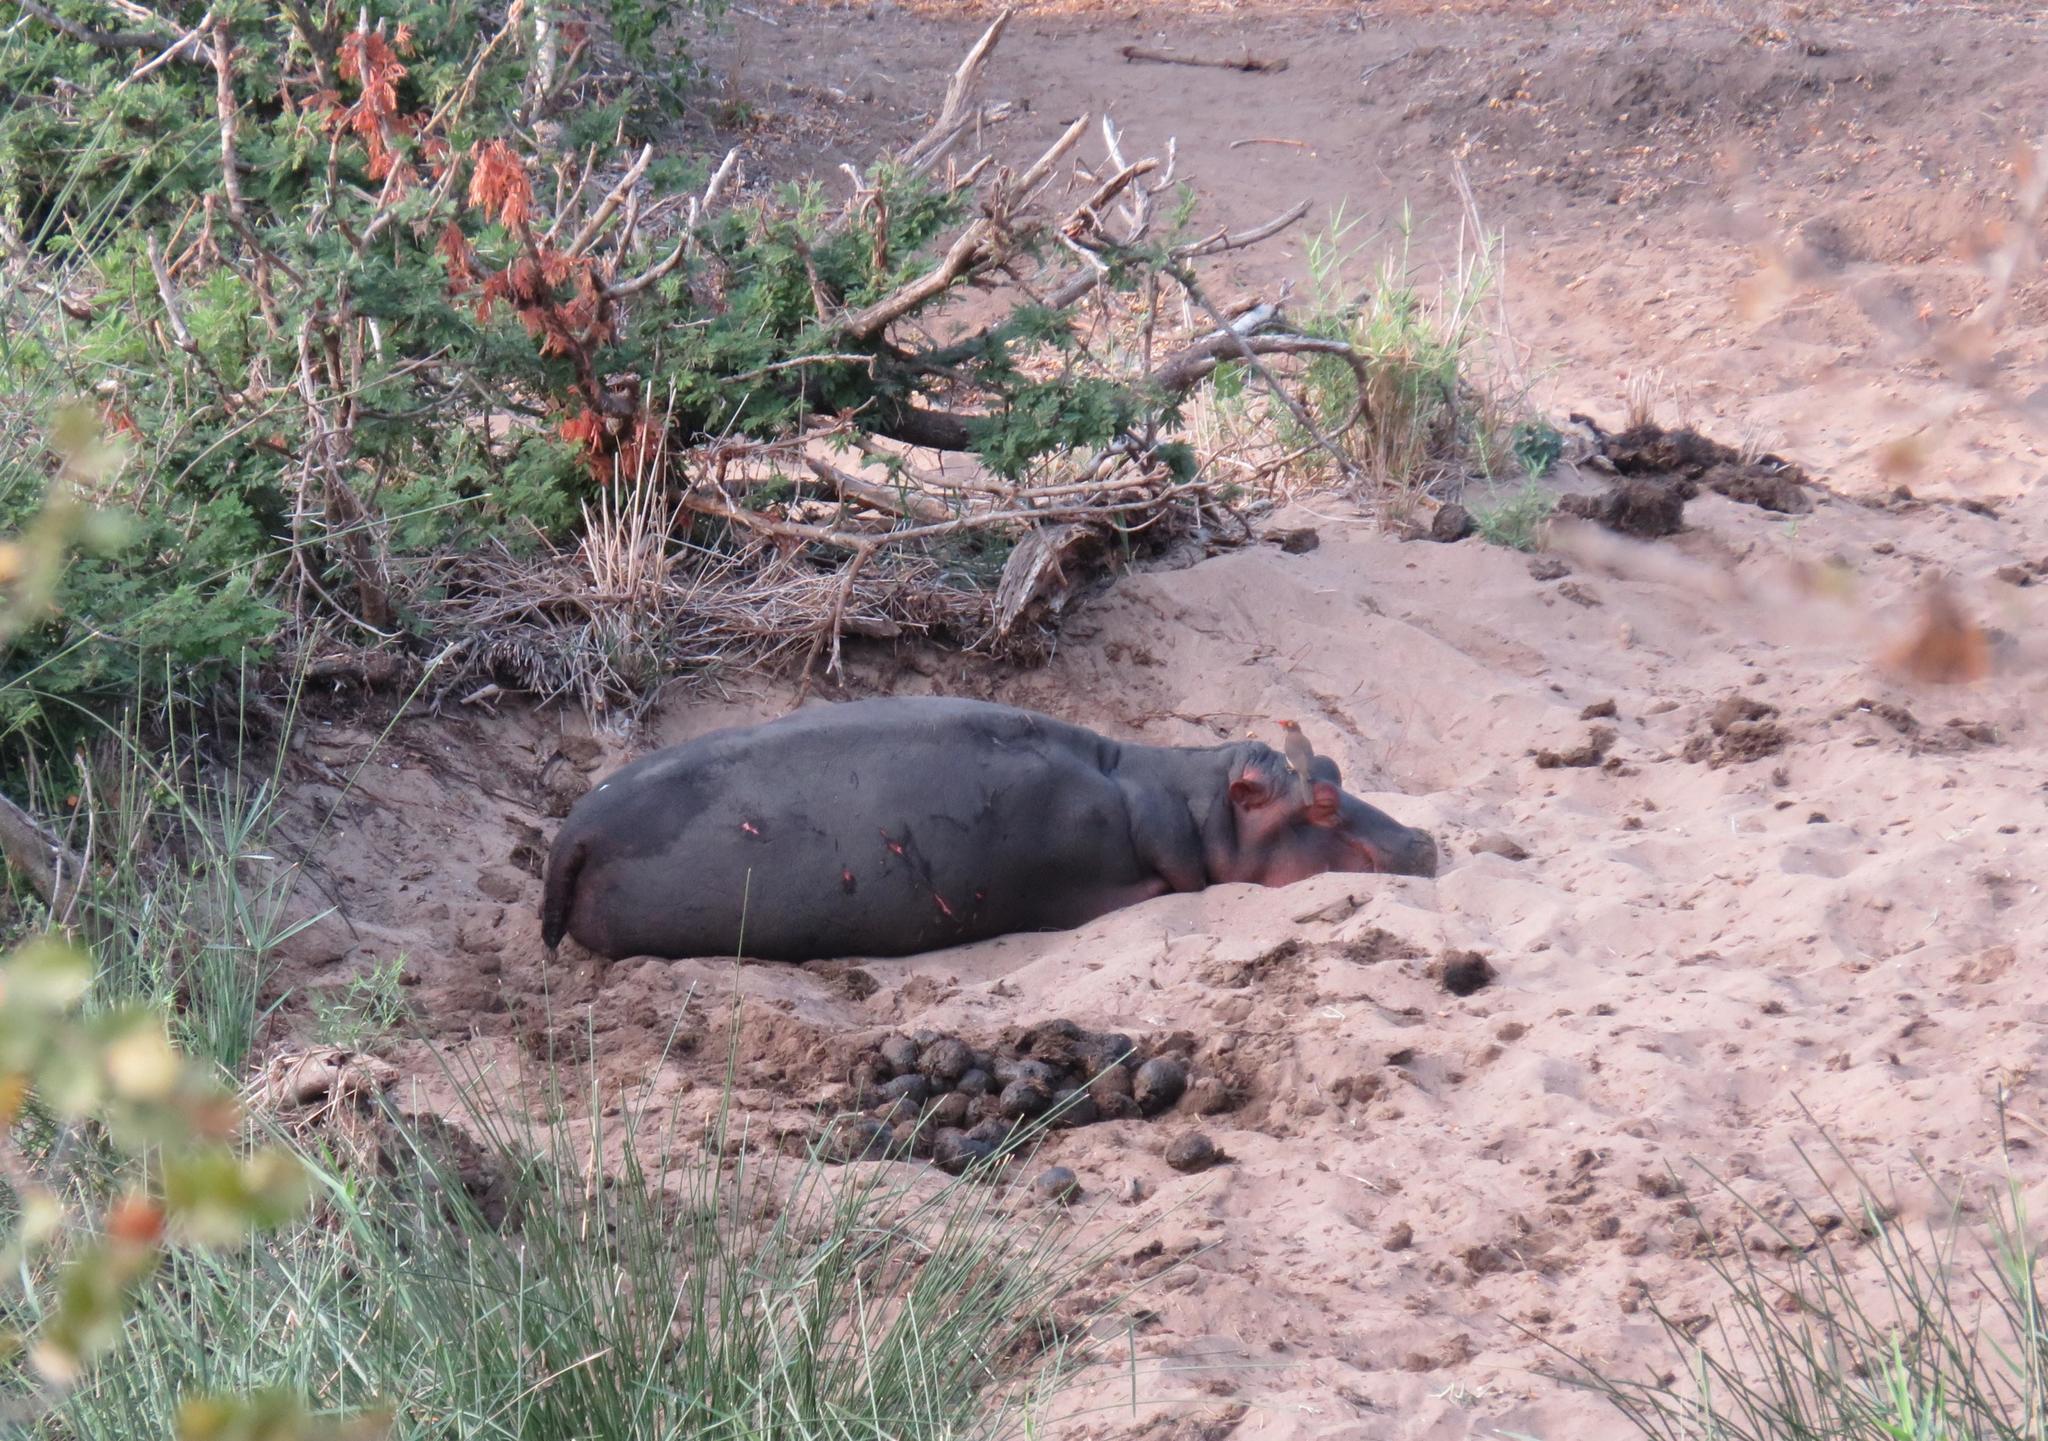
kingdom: Animalia
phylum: Chordata
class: Mammalia
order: Artiodactyla
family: Hippopotamidae
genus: Hippopotamus
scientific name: Hippopotamus amphibius
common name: Common hippopotamus
